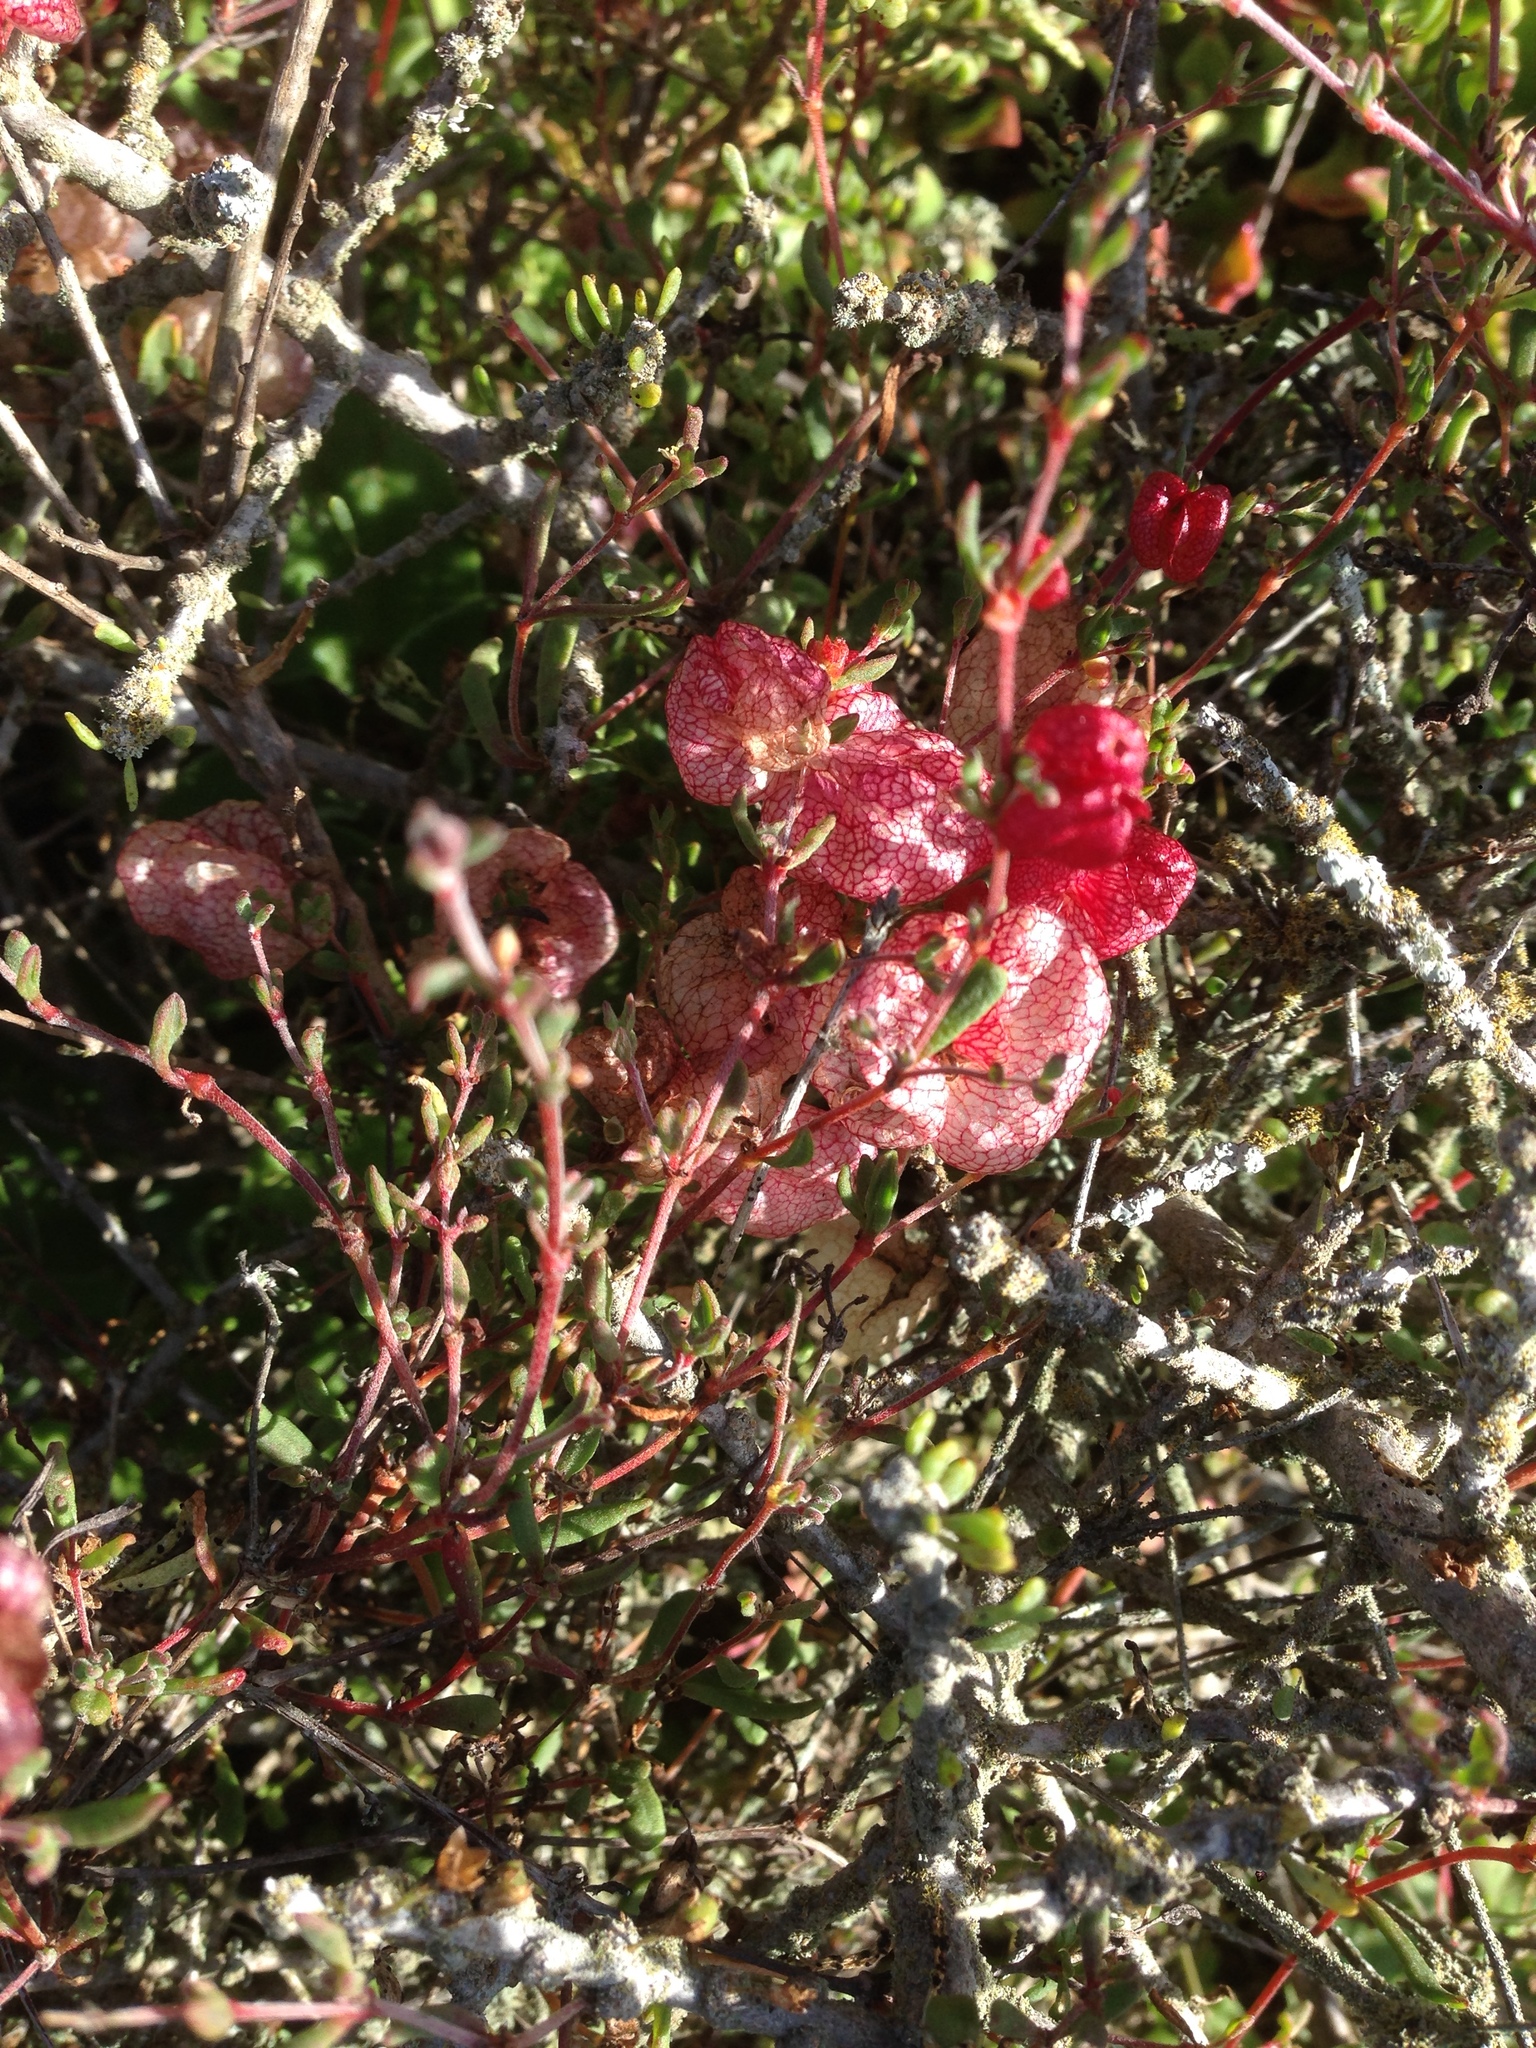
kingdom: Plantae
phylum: Tracheophyta
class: Magnoliopsida
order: Caryophyllales
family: Polygonaceae
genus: Harfordia
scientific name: Harfordia macroptera
